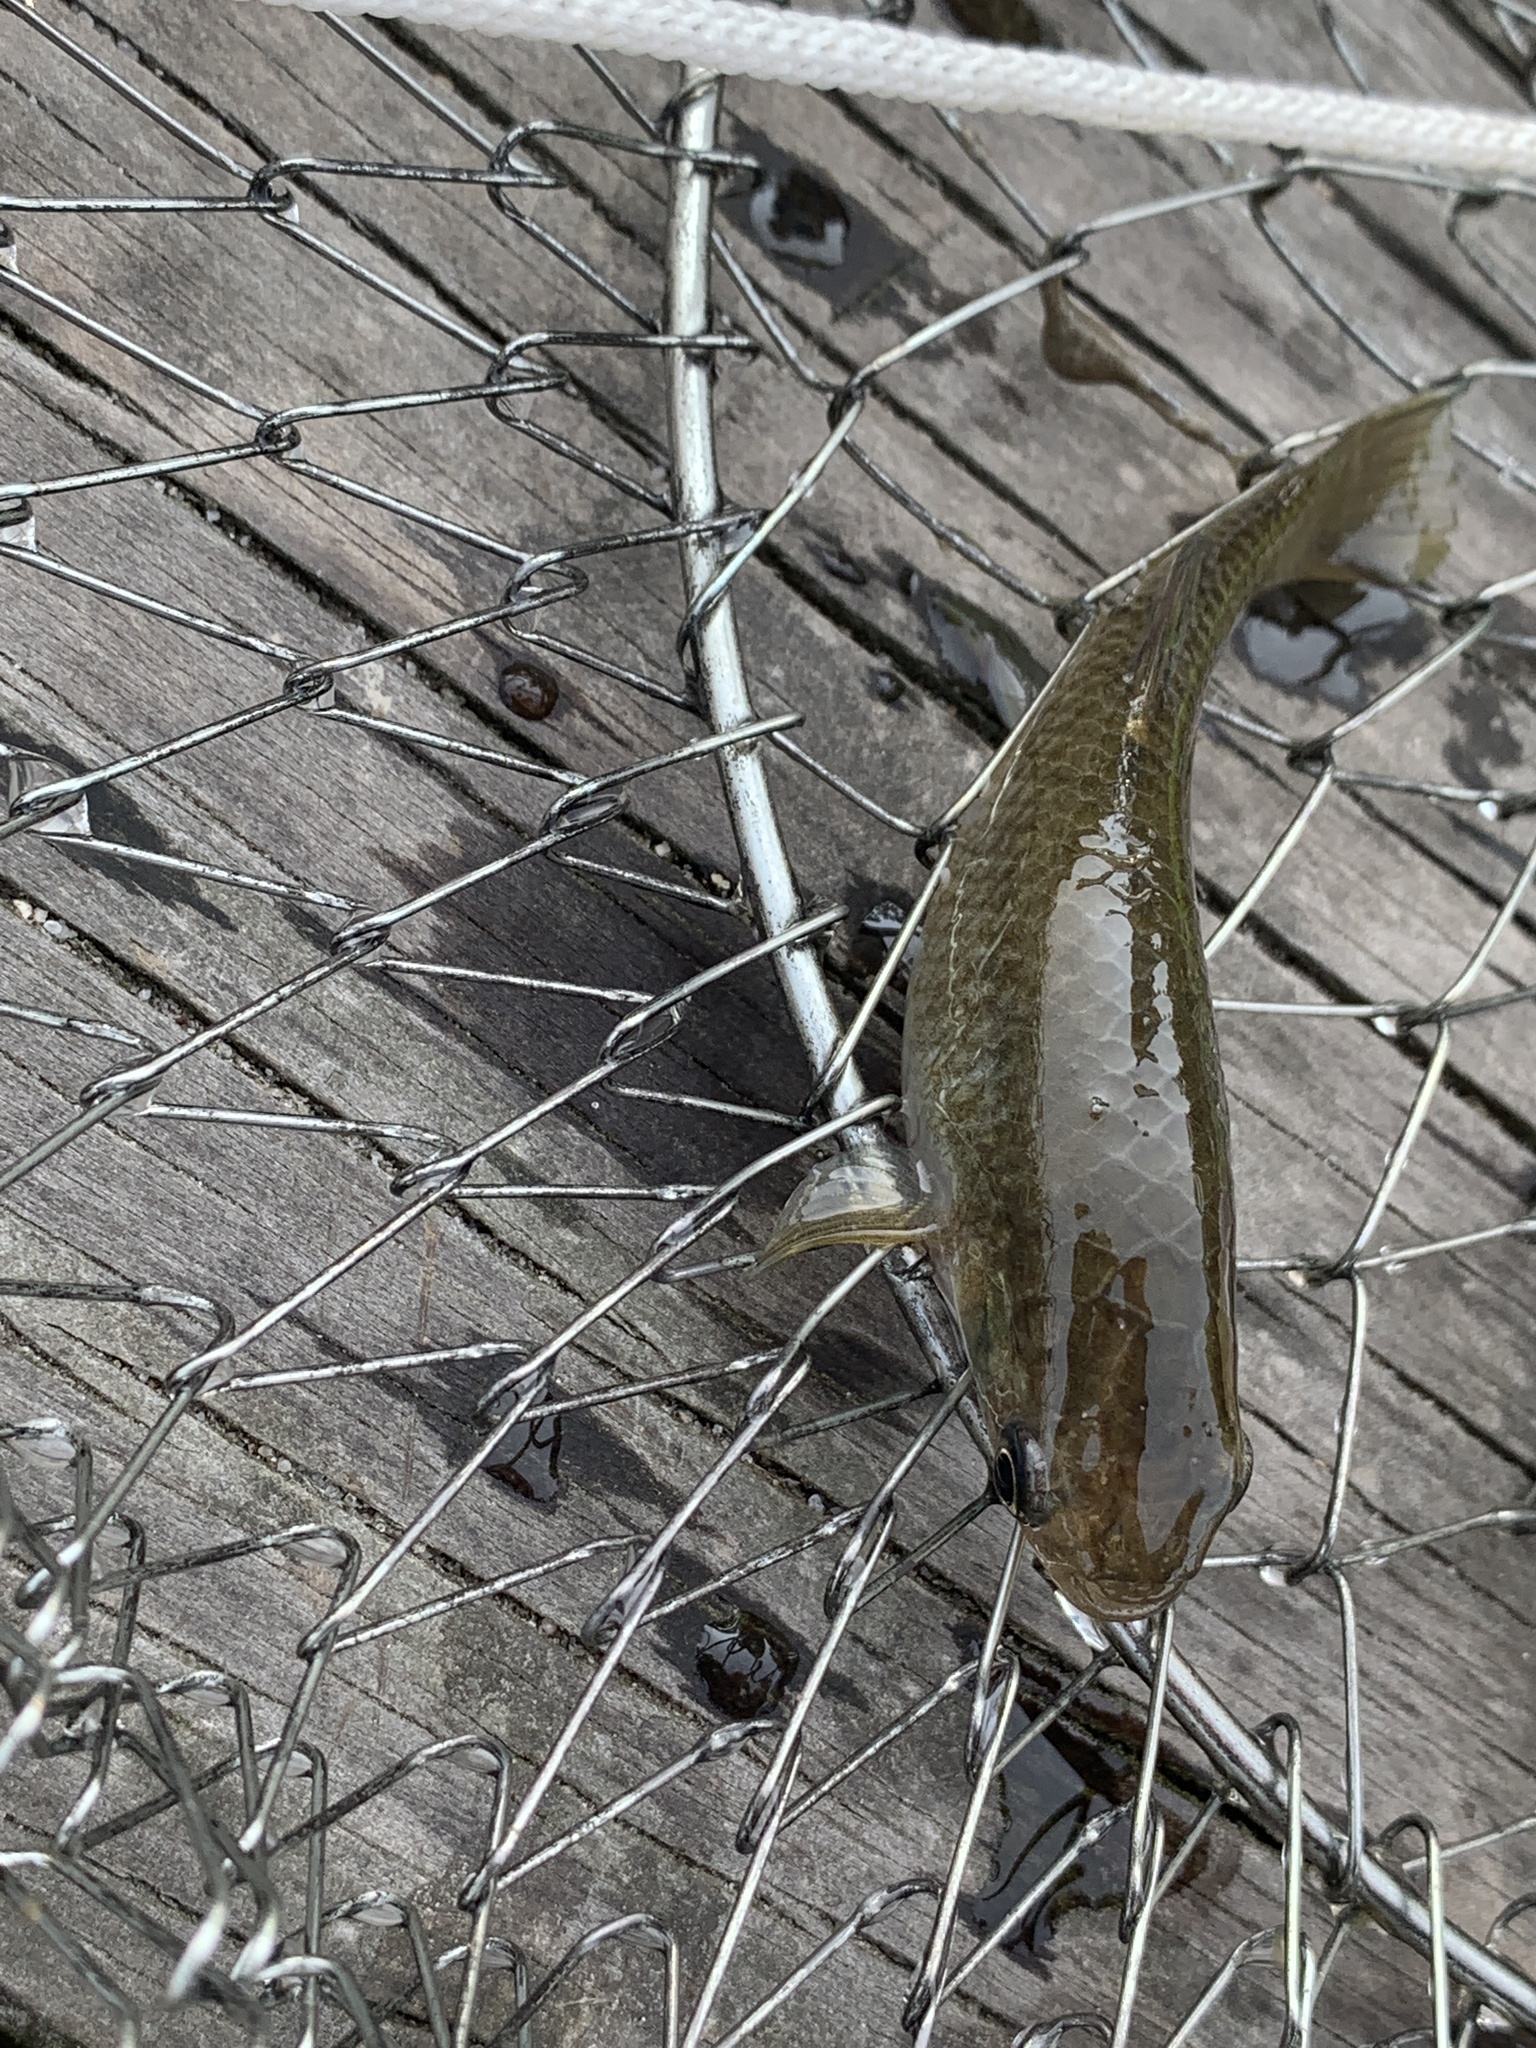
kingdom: Animalia
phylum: Chordata
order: Cyprinodontiformes
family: Fundulidae
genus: Fundulus
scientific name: Fundulus heteroclitus
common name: Mummichog
